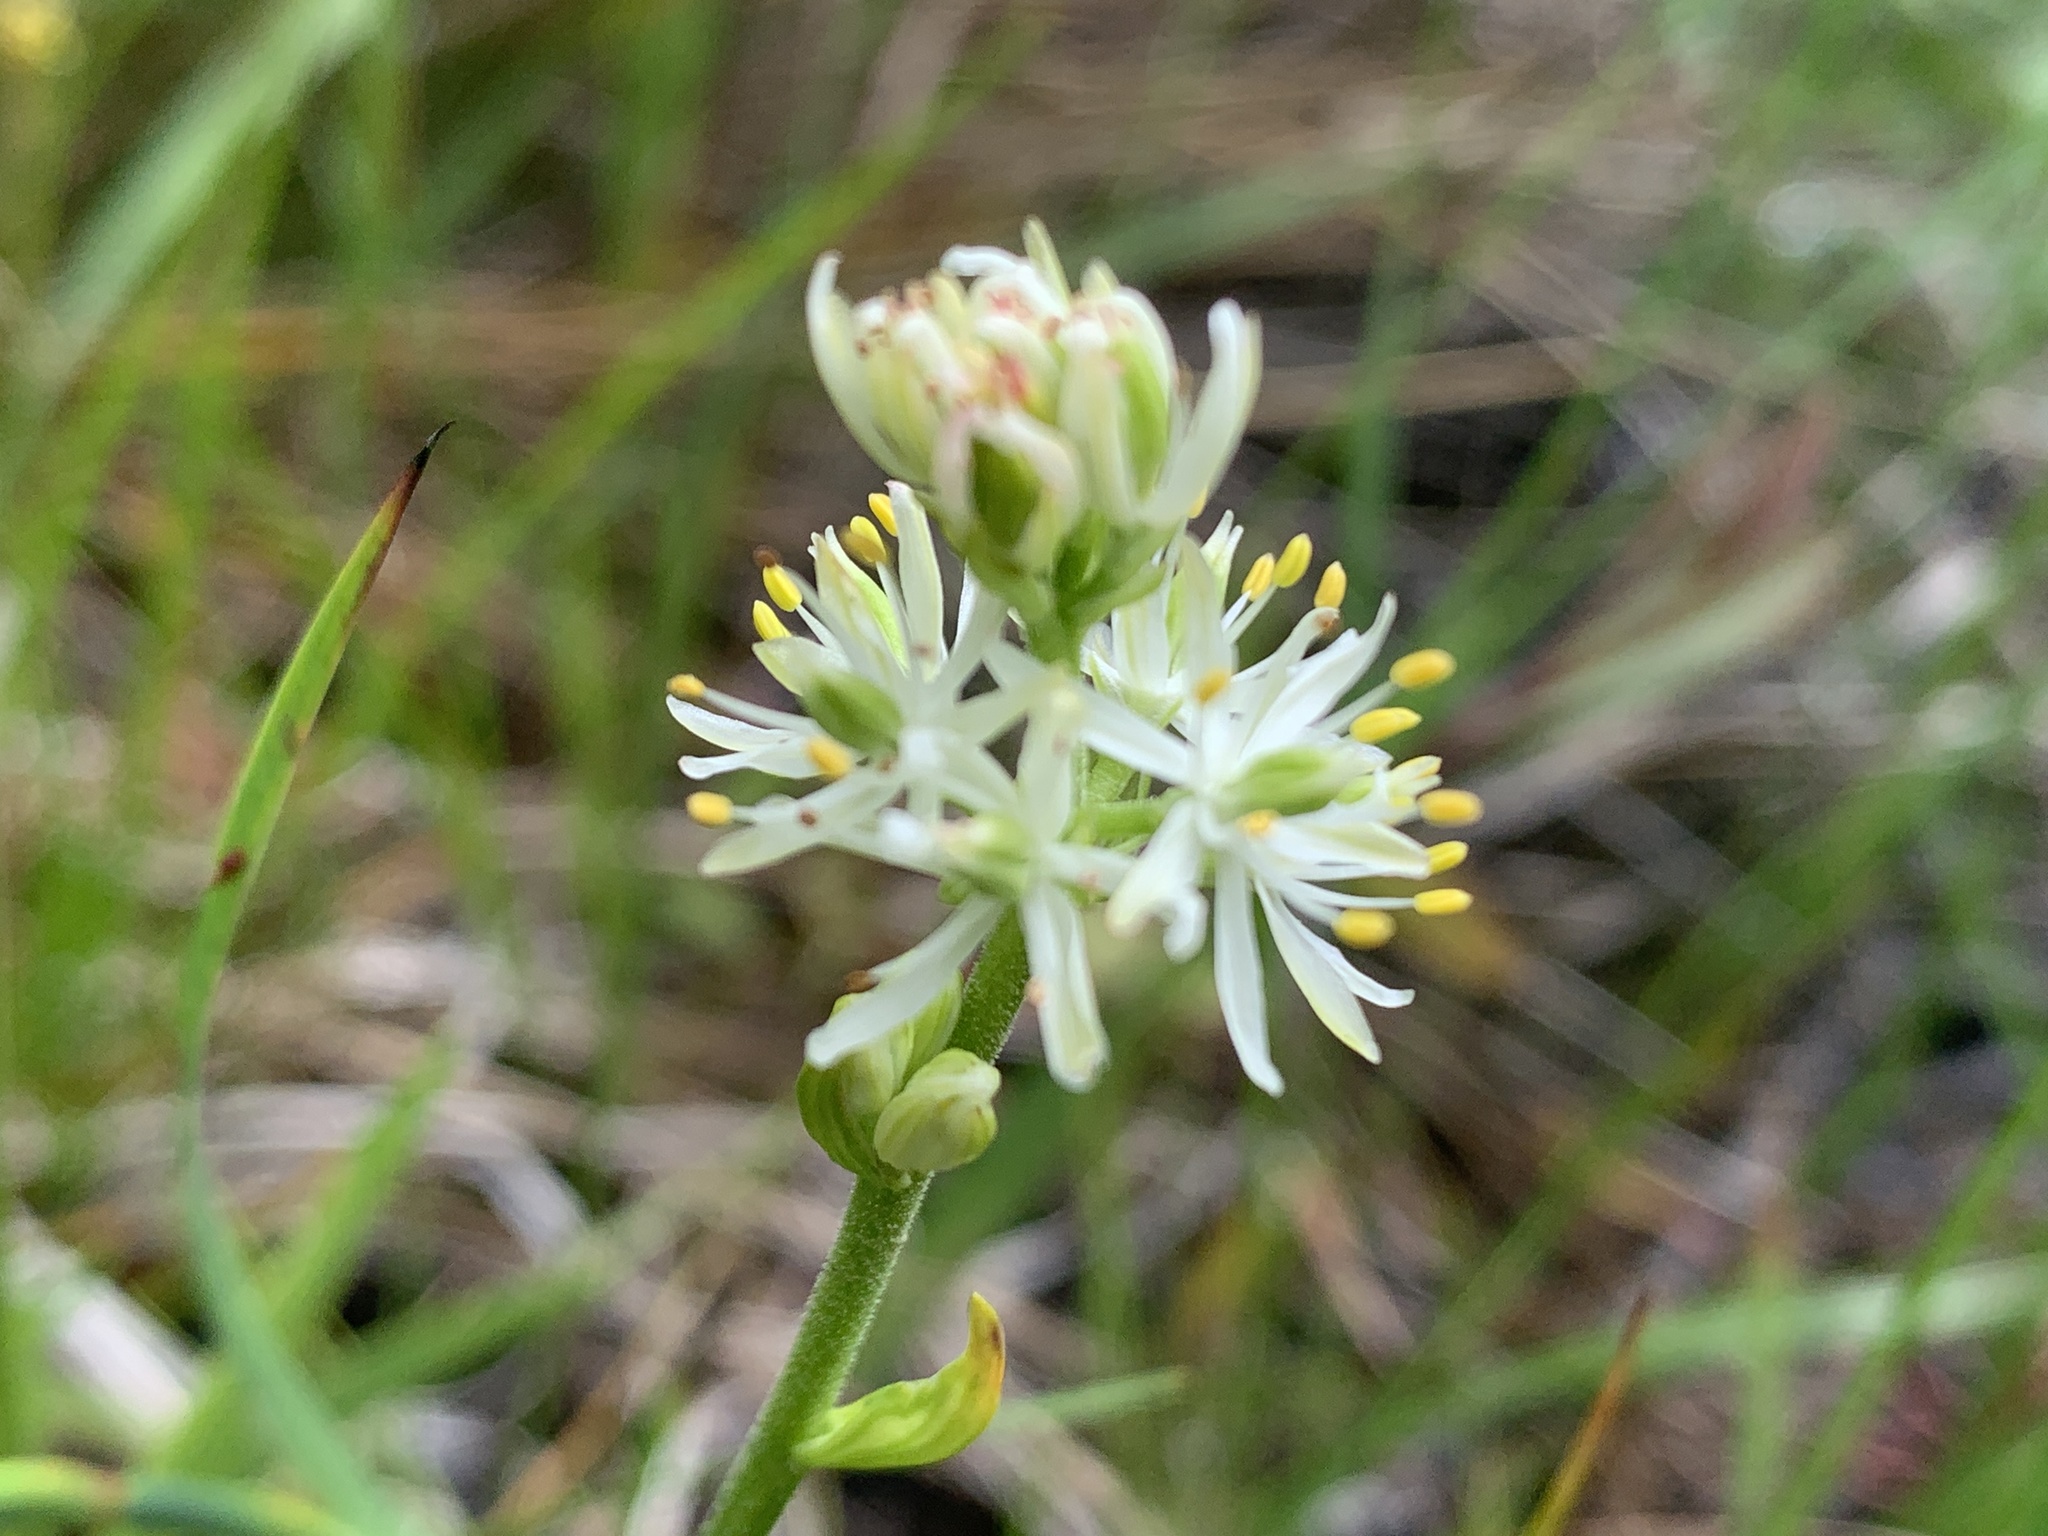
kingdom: Plantae
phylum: Tracheophyta
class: Liliopsida
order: Alismatales
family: Tofieldiaceae
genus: Triantha
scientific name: Triantha glutinosa
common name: Glutinous tofieldia
